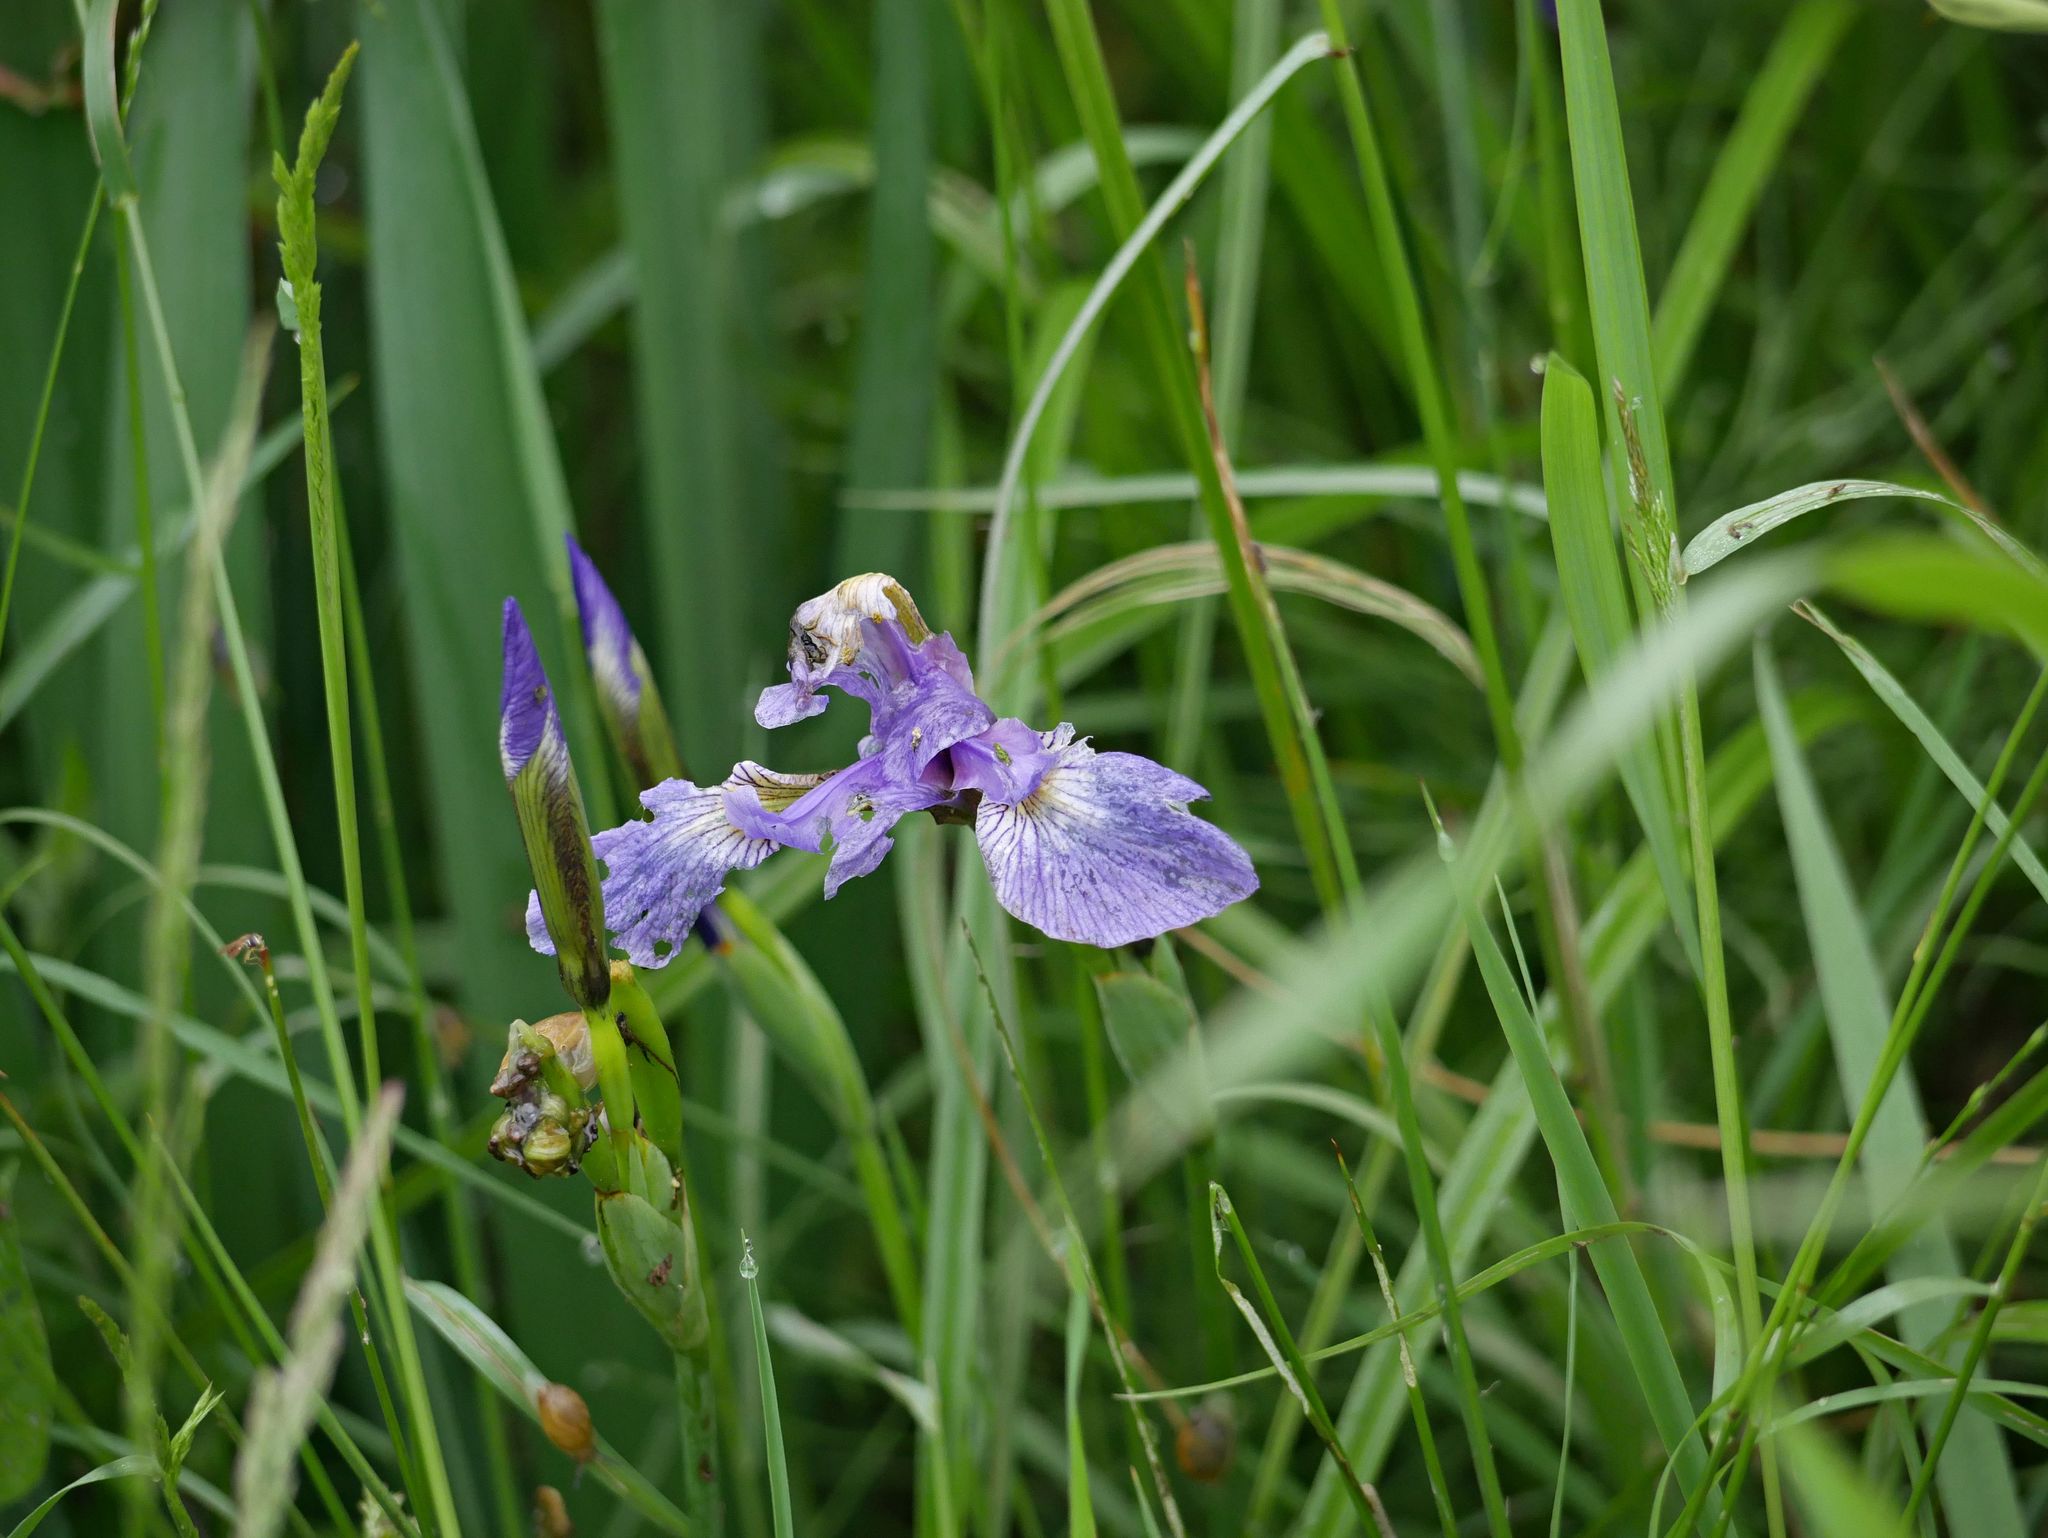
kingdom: Plantae
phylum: Tracheophyta
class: Liliopsida
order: Asparagales
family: Iridaceae
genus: Iris
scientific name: Iris versicolor
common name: Purple iris
